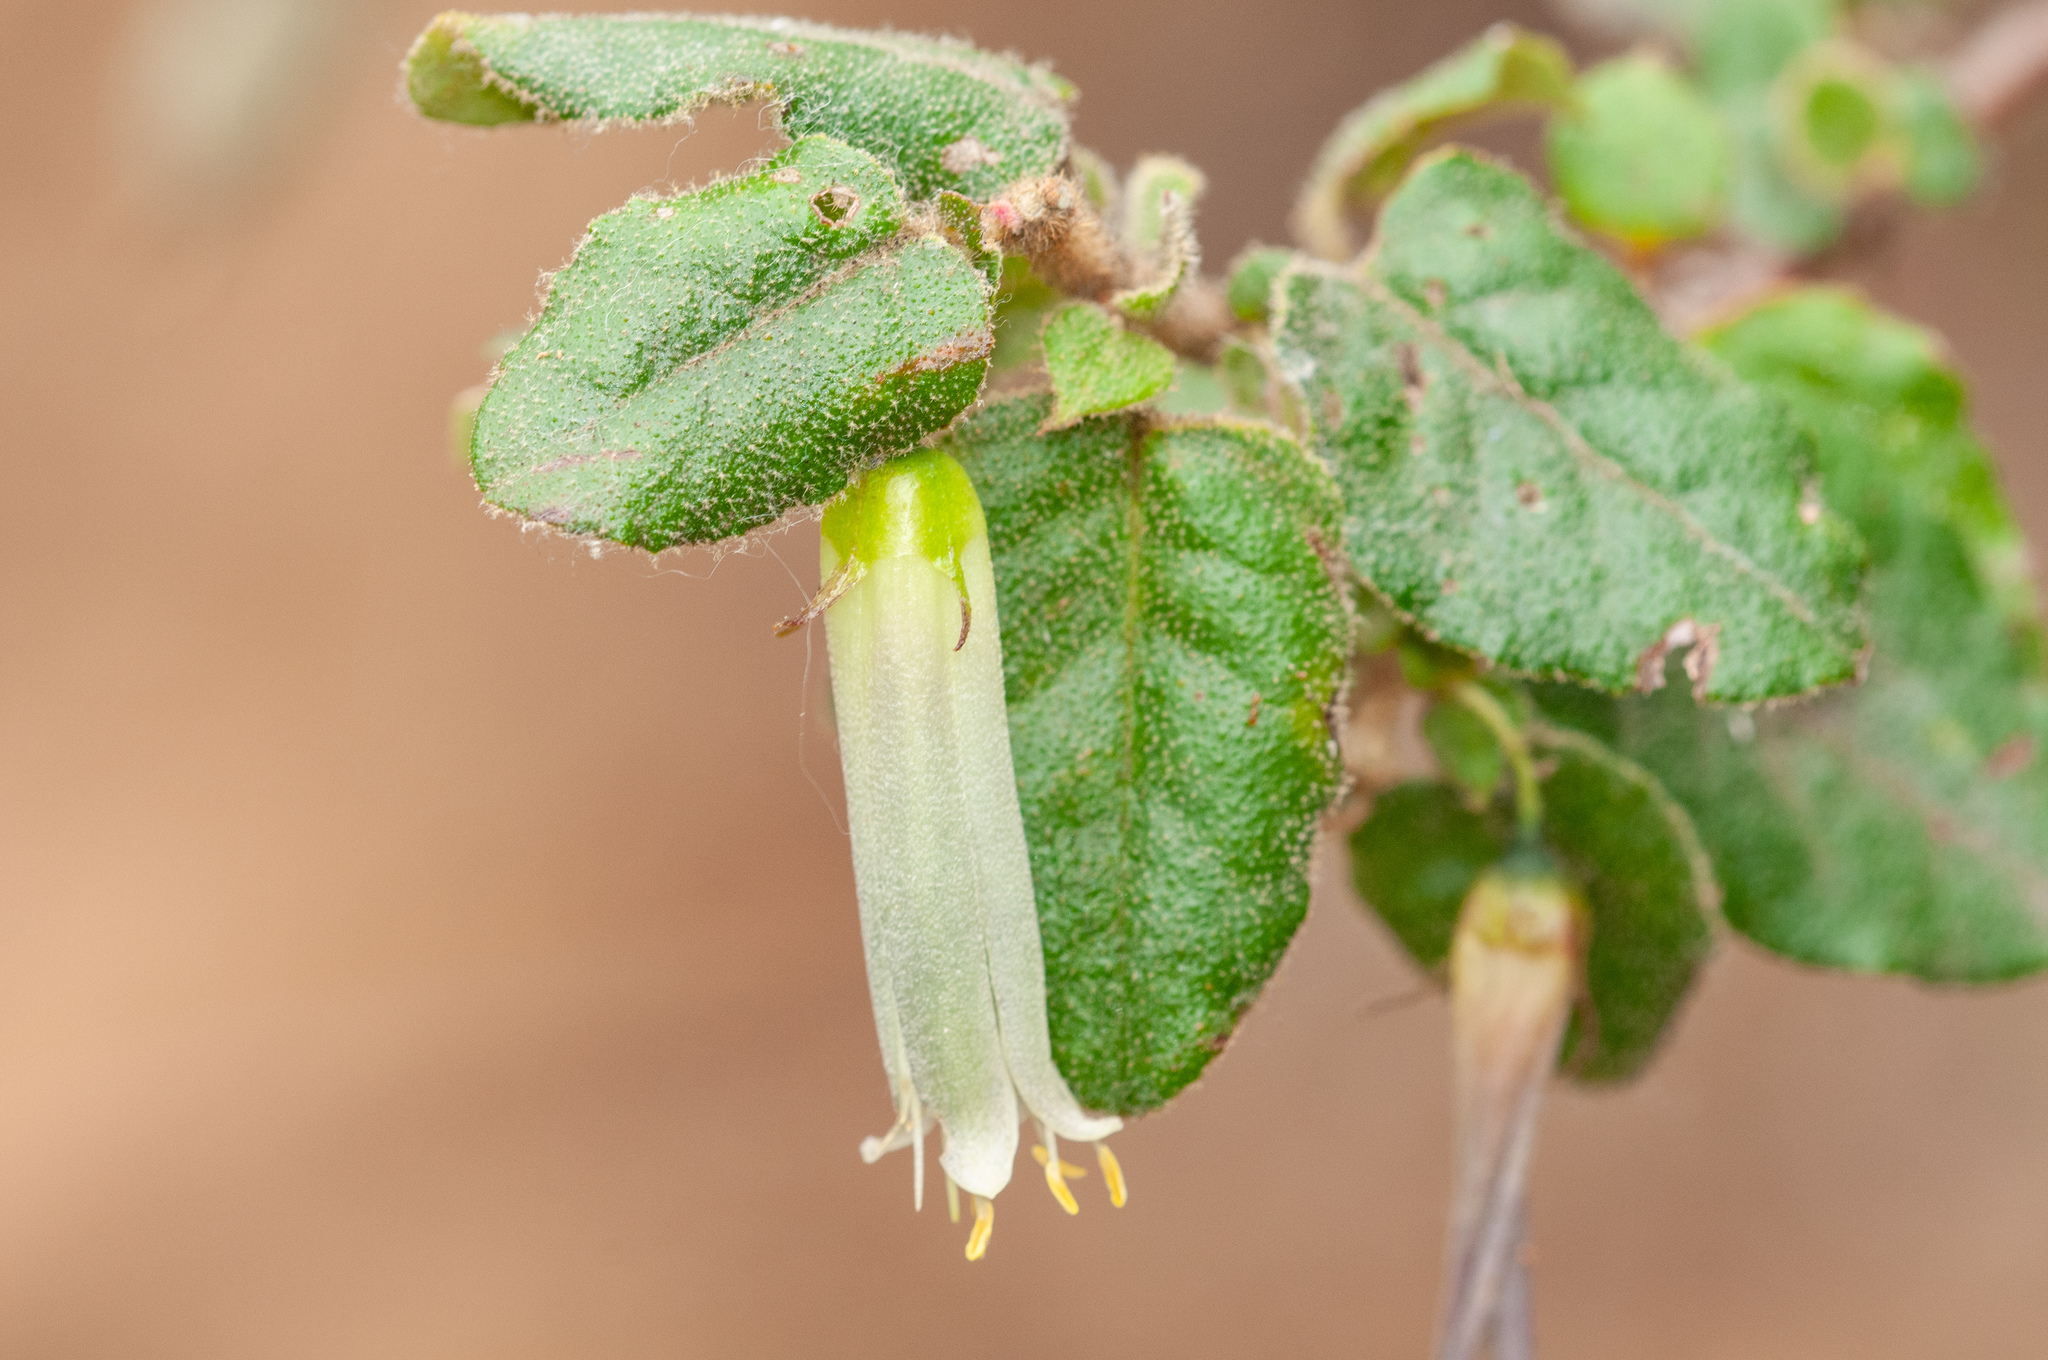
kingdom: Plantae
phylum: Tracheophyta
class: Magnoliopsida
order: Sapindales
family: Rutaceae
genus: Correa
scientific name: Correa aemula
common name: Hairy correa
